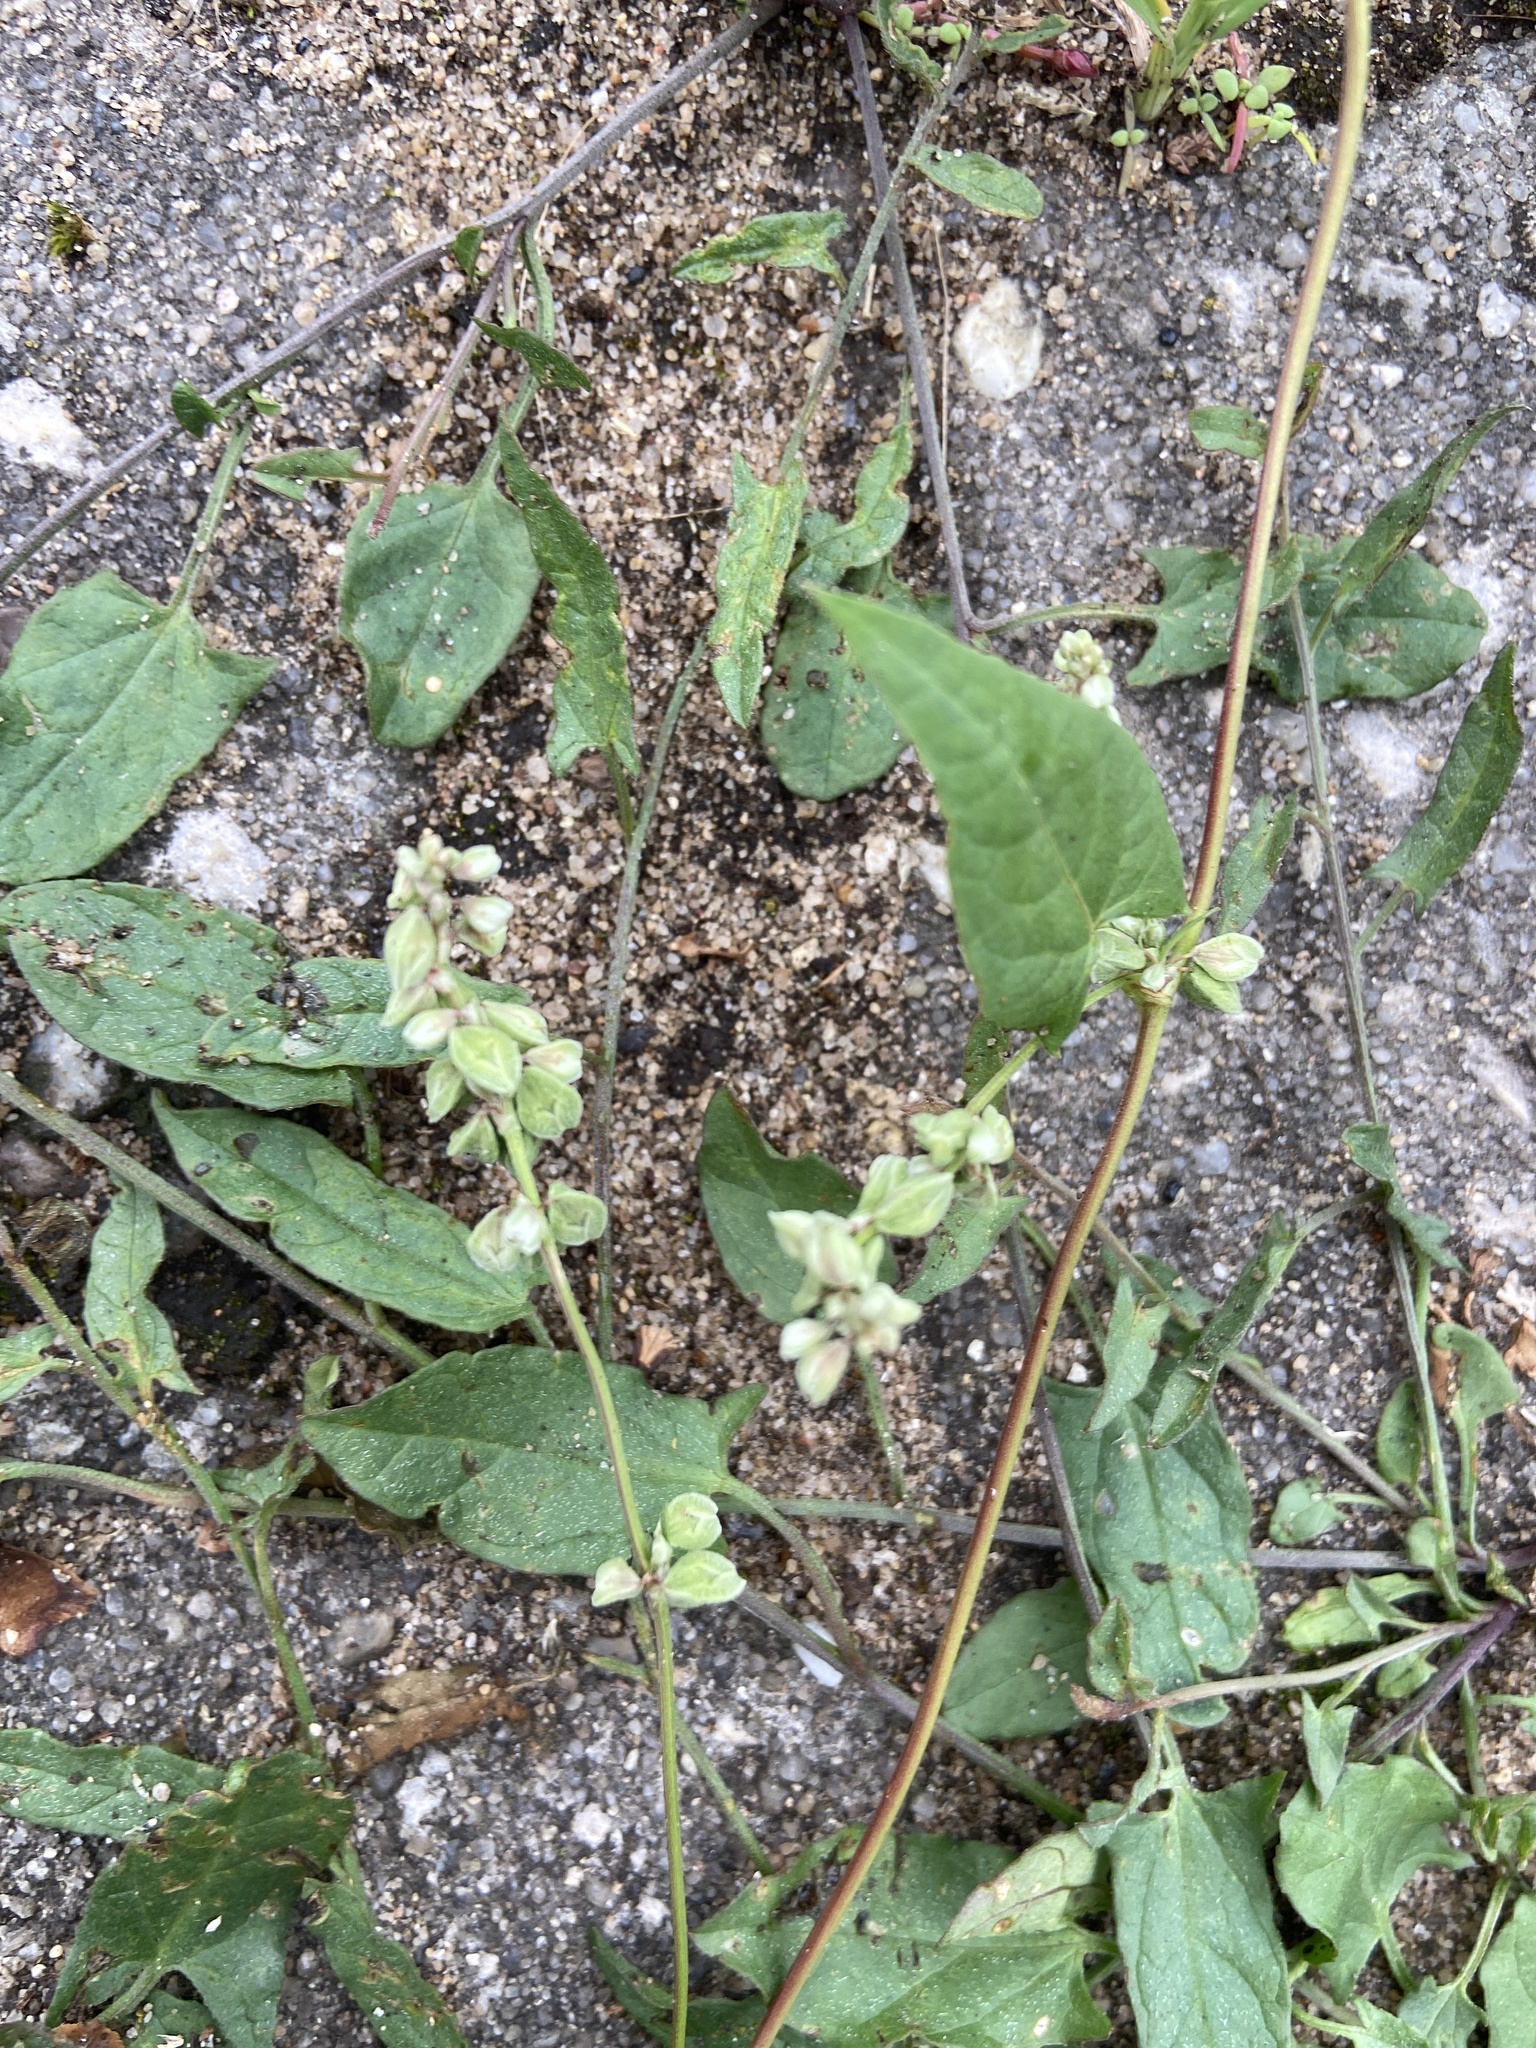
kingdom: Plantae
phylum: Tracheophyta
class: Magnoliopsida
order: Caryophyllales
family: Polygonaceae
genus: Fallopia
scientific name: Fallopia convolvulus
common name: Black bindweed
